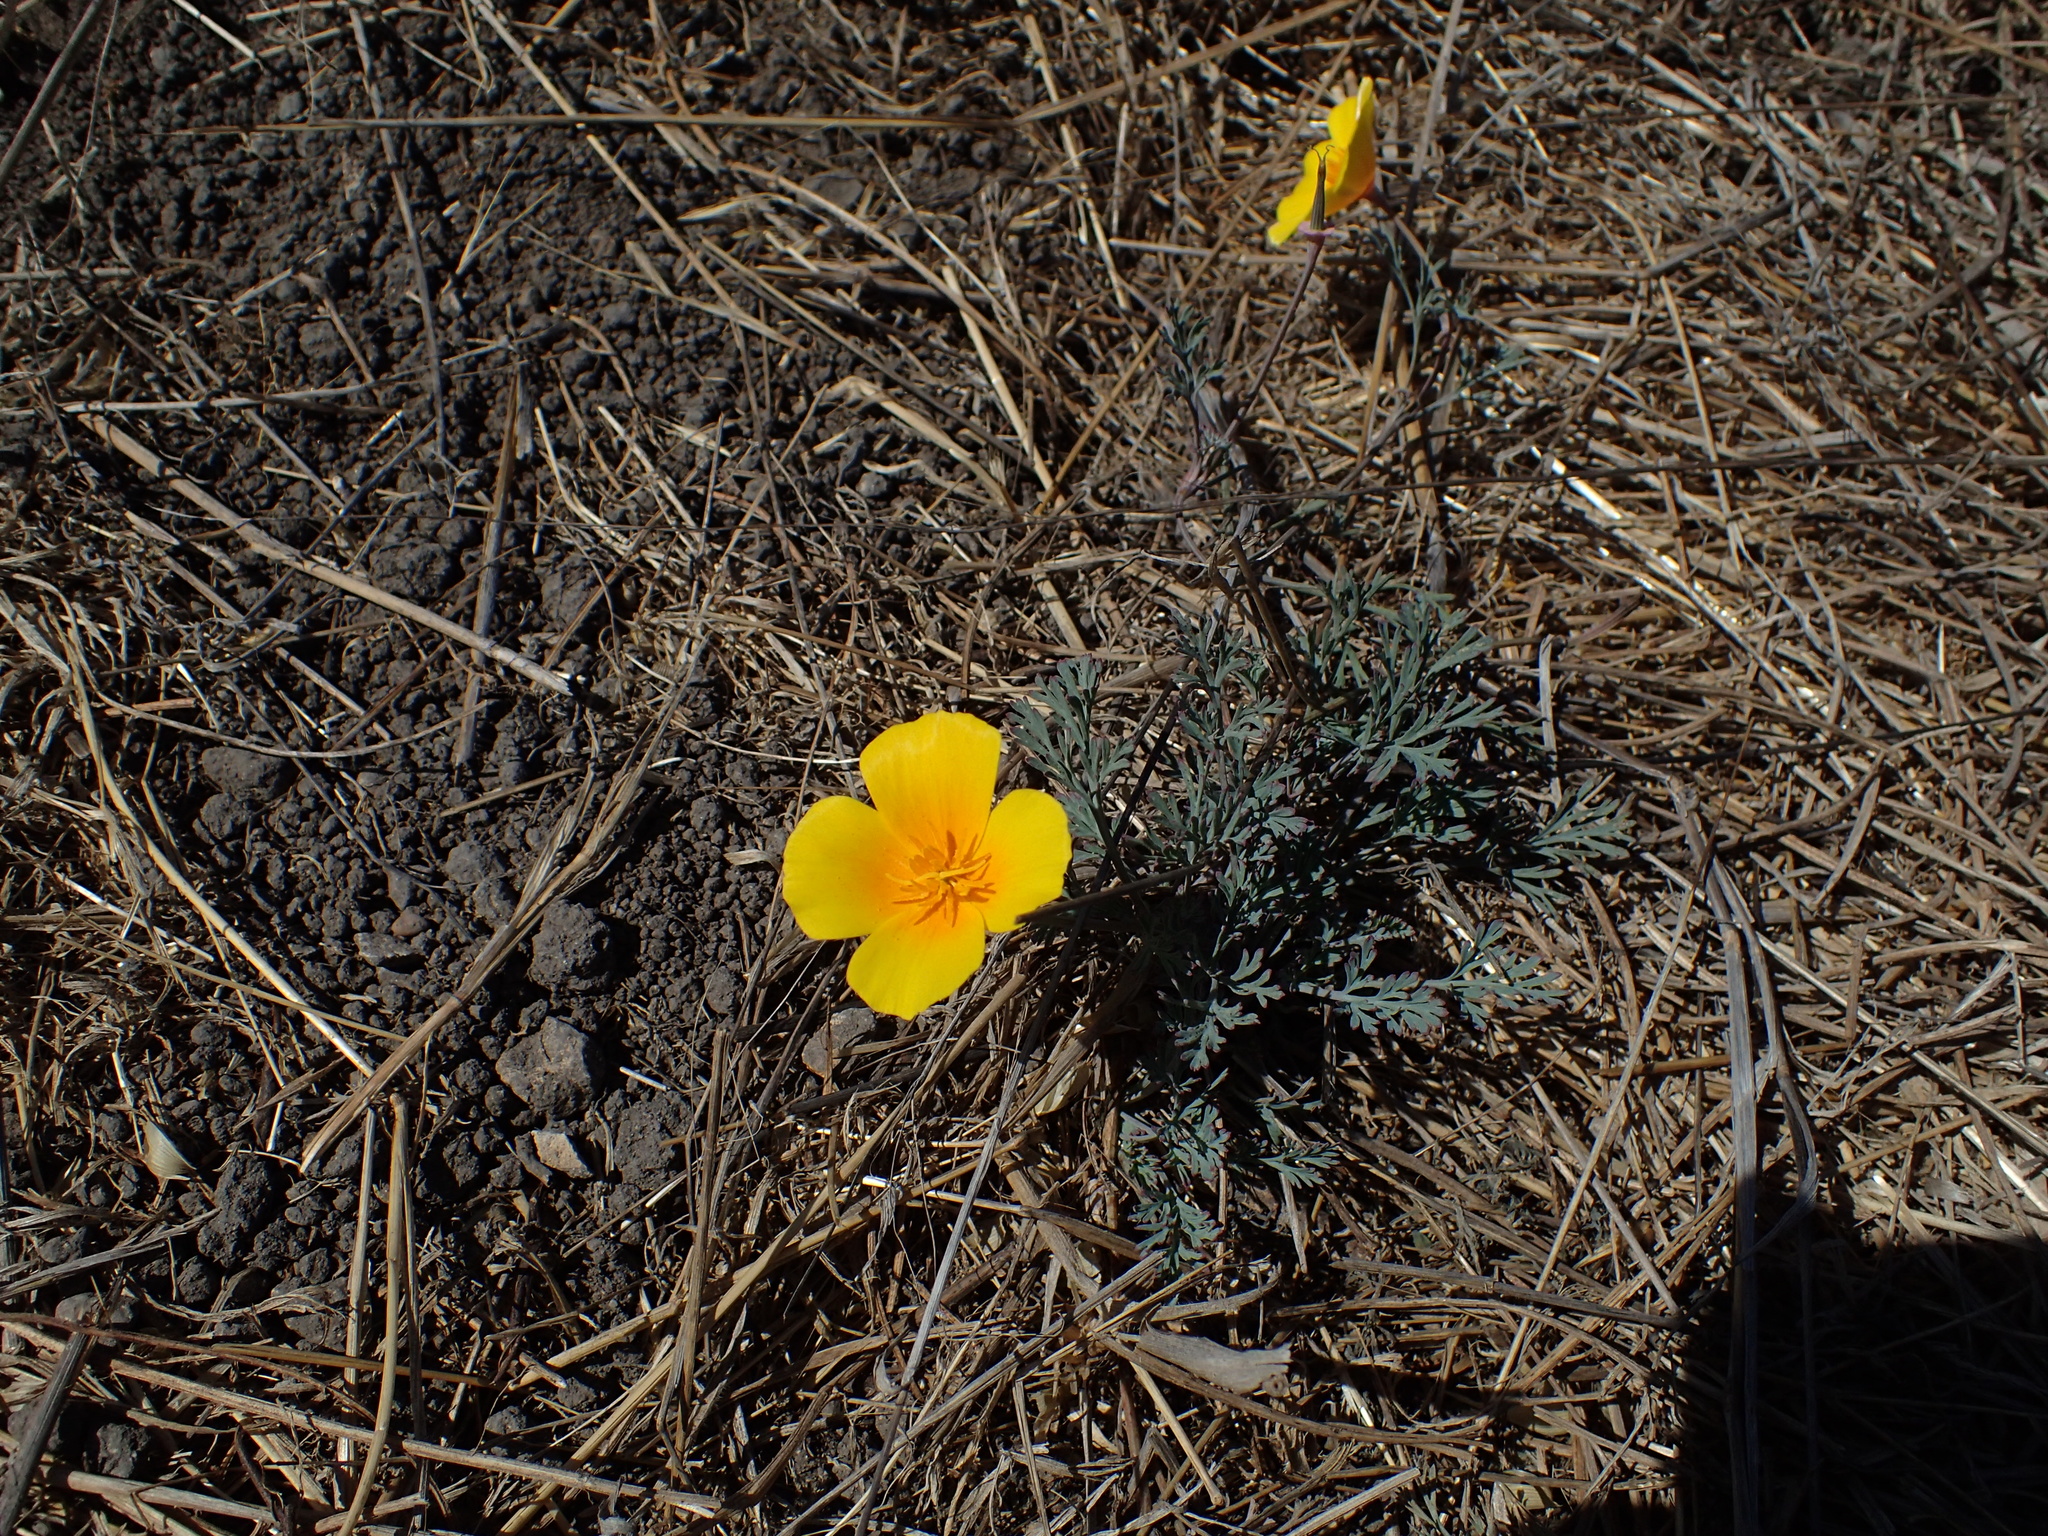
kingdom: Plantae
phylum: Tracheophyta
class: Magnoliopsida
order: Ranunculales
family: Papaveraceae
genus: Eschscholzia
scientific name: Eschscholzia californica
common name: California poppy
